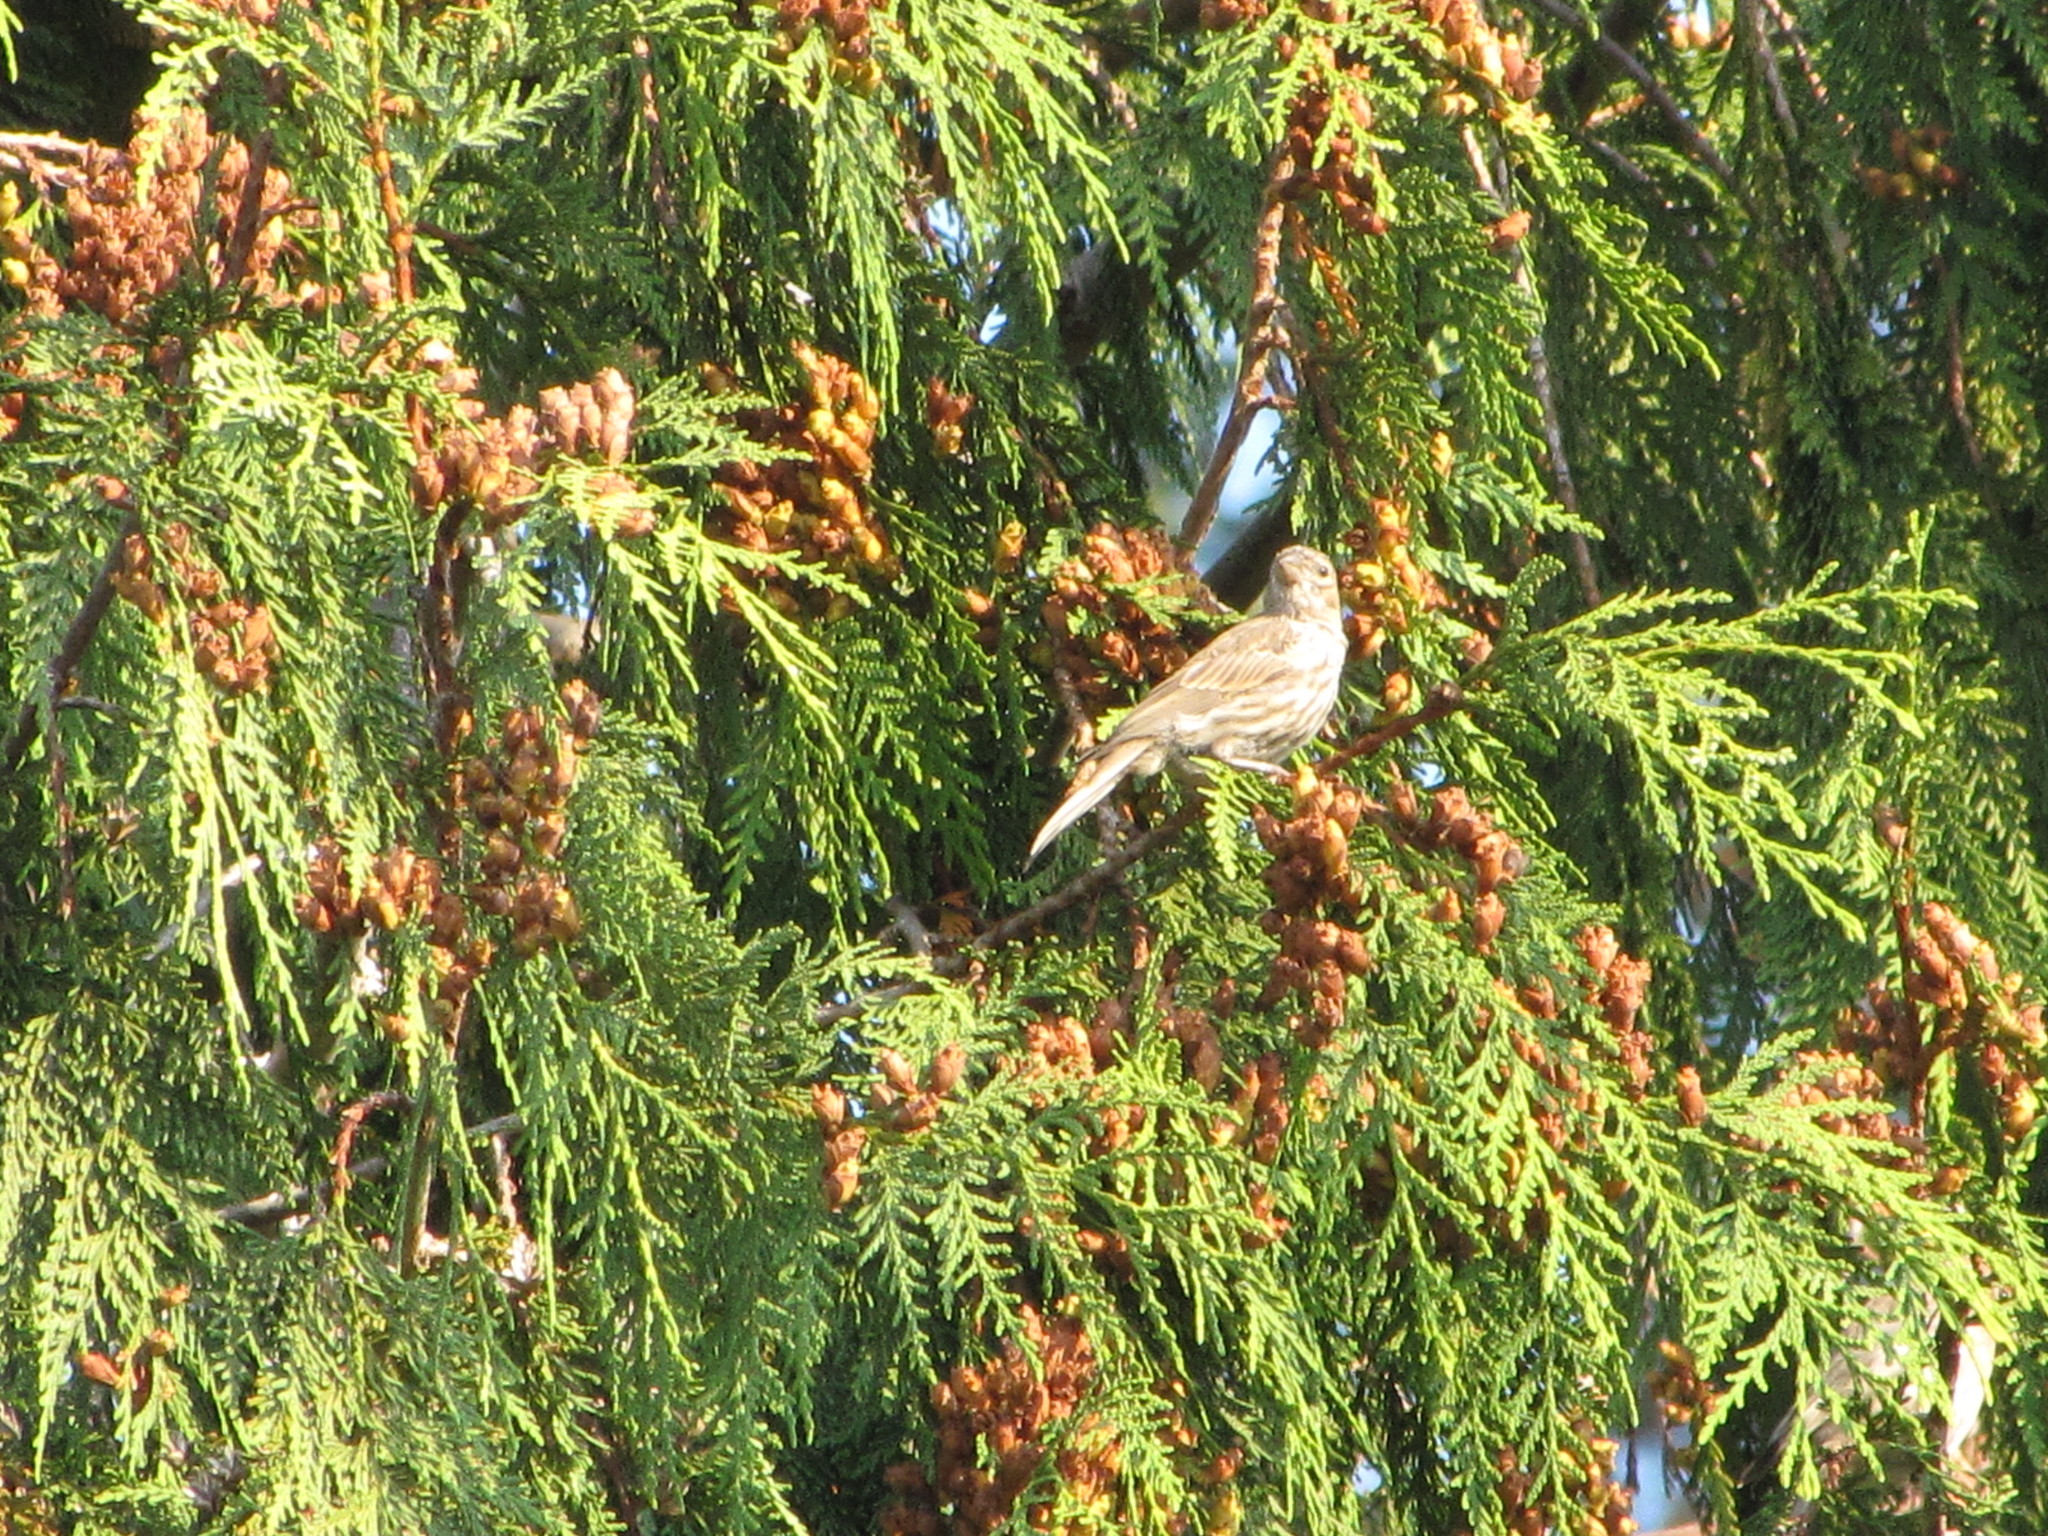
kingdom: Animalia
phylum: Chordata
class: Aves
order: Passeriformes
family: Fringillidae
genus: Haemorhous
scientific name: Haemorhous mexicanus
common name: House finch
